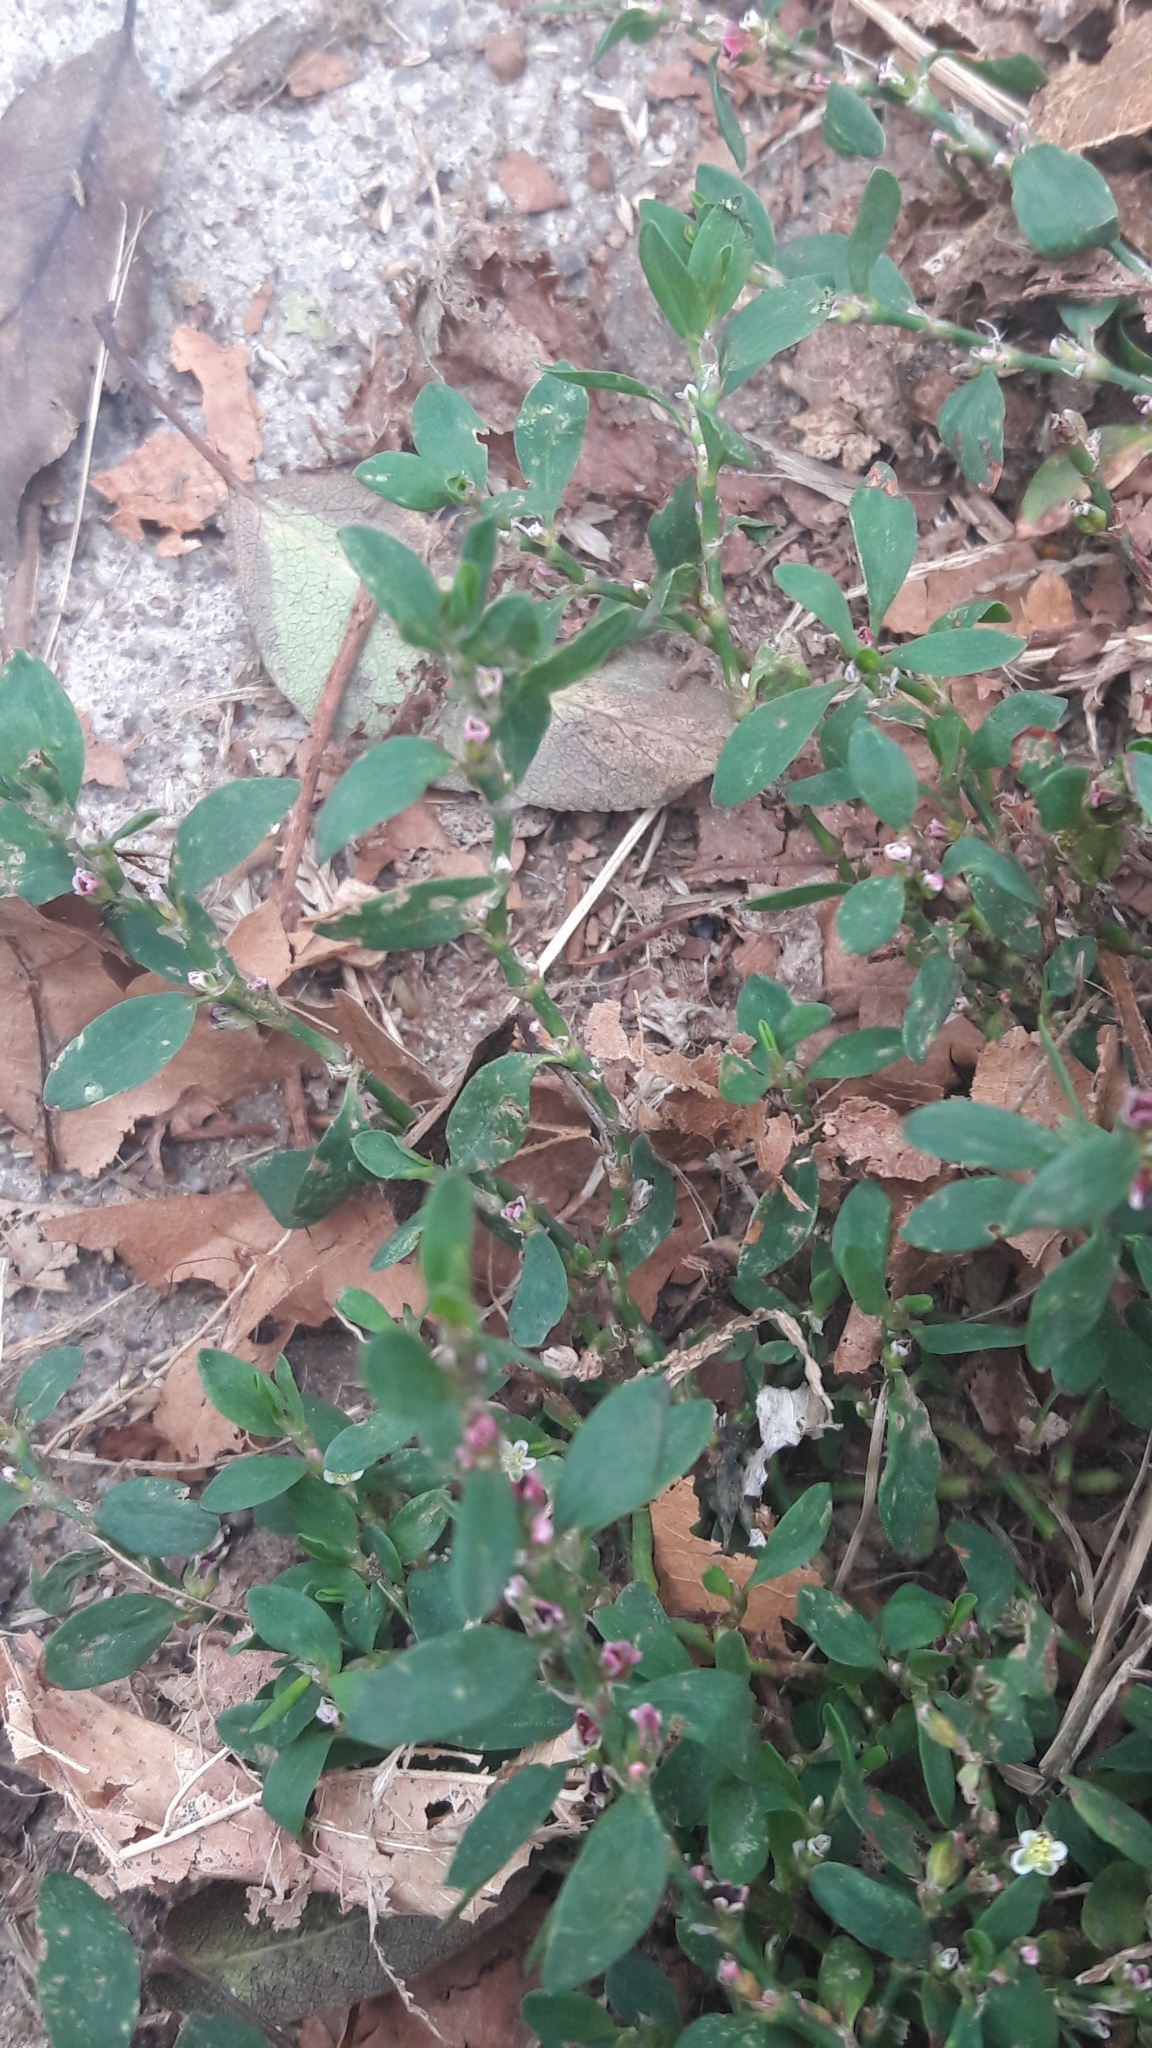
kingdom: Plantae
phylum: Tracheophyta
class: Magnoliopsida
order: Caryophyllales
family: Polygonaceae
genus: Polygonum
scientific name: Polygonum aviculare
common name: Prostrate knotweed
